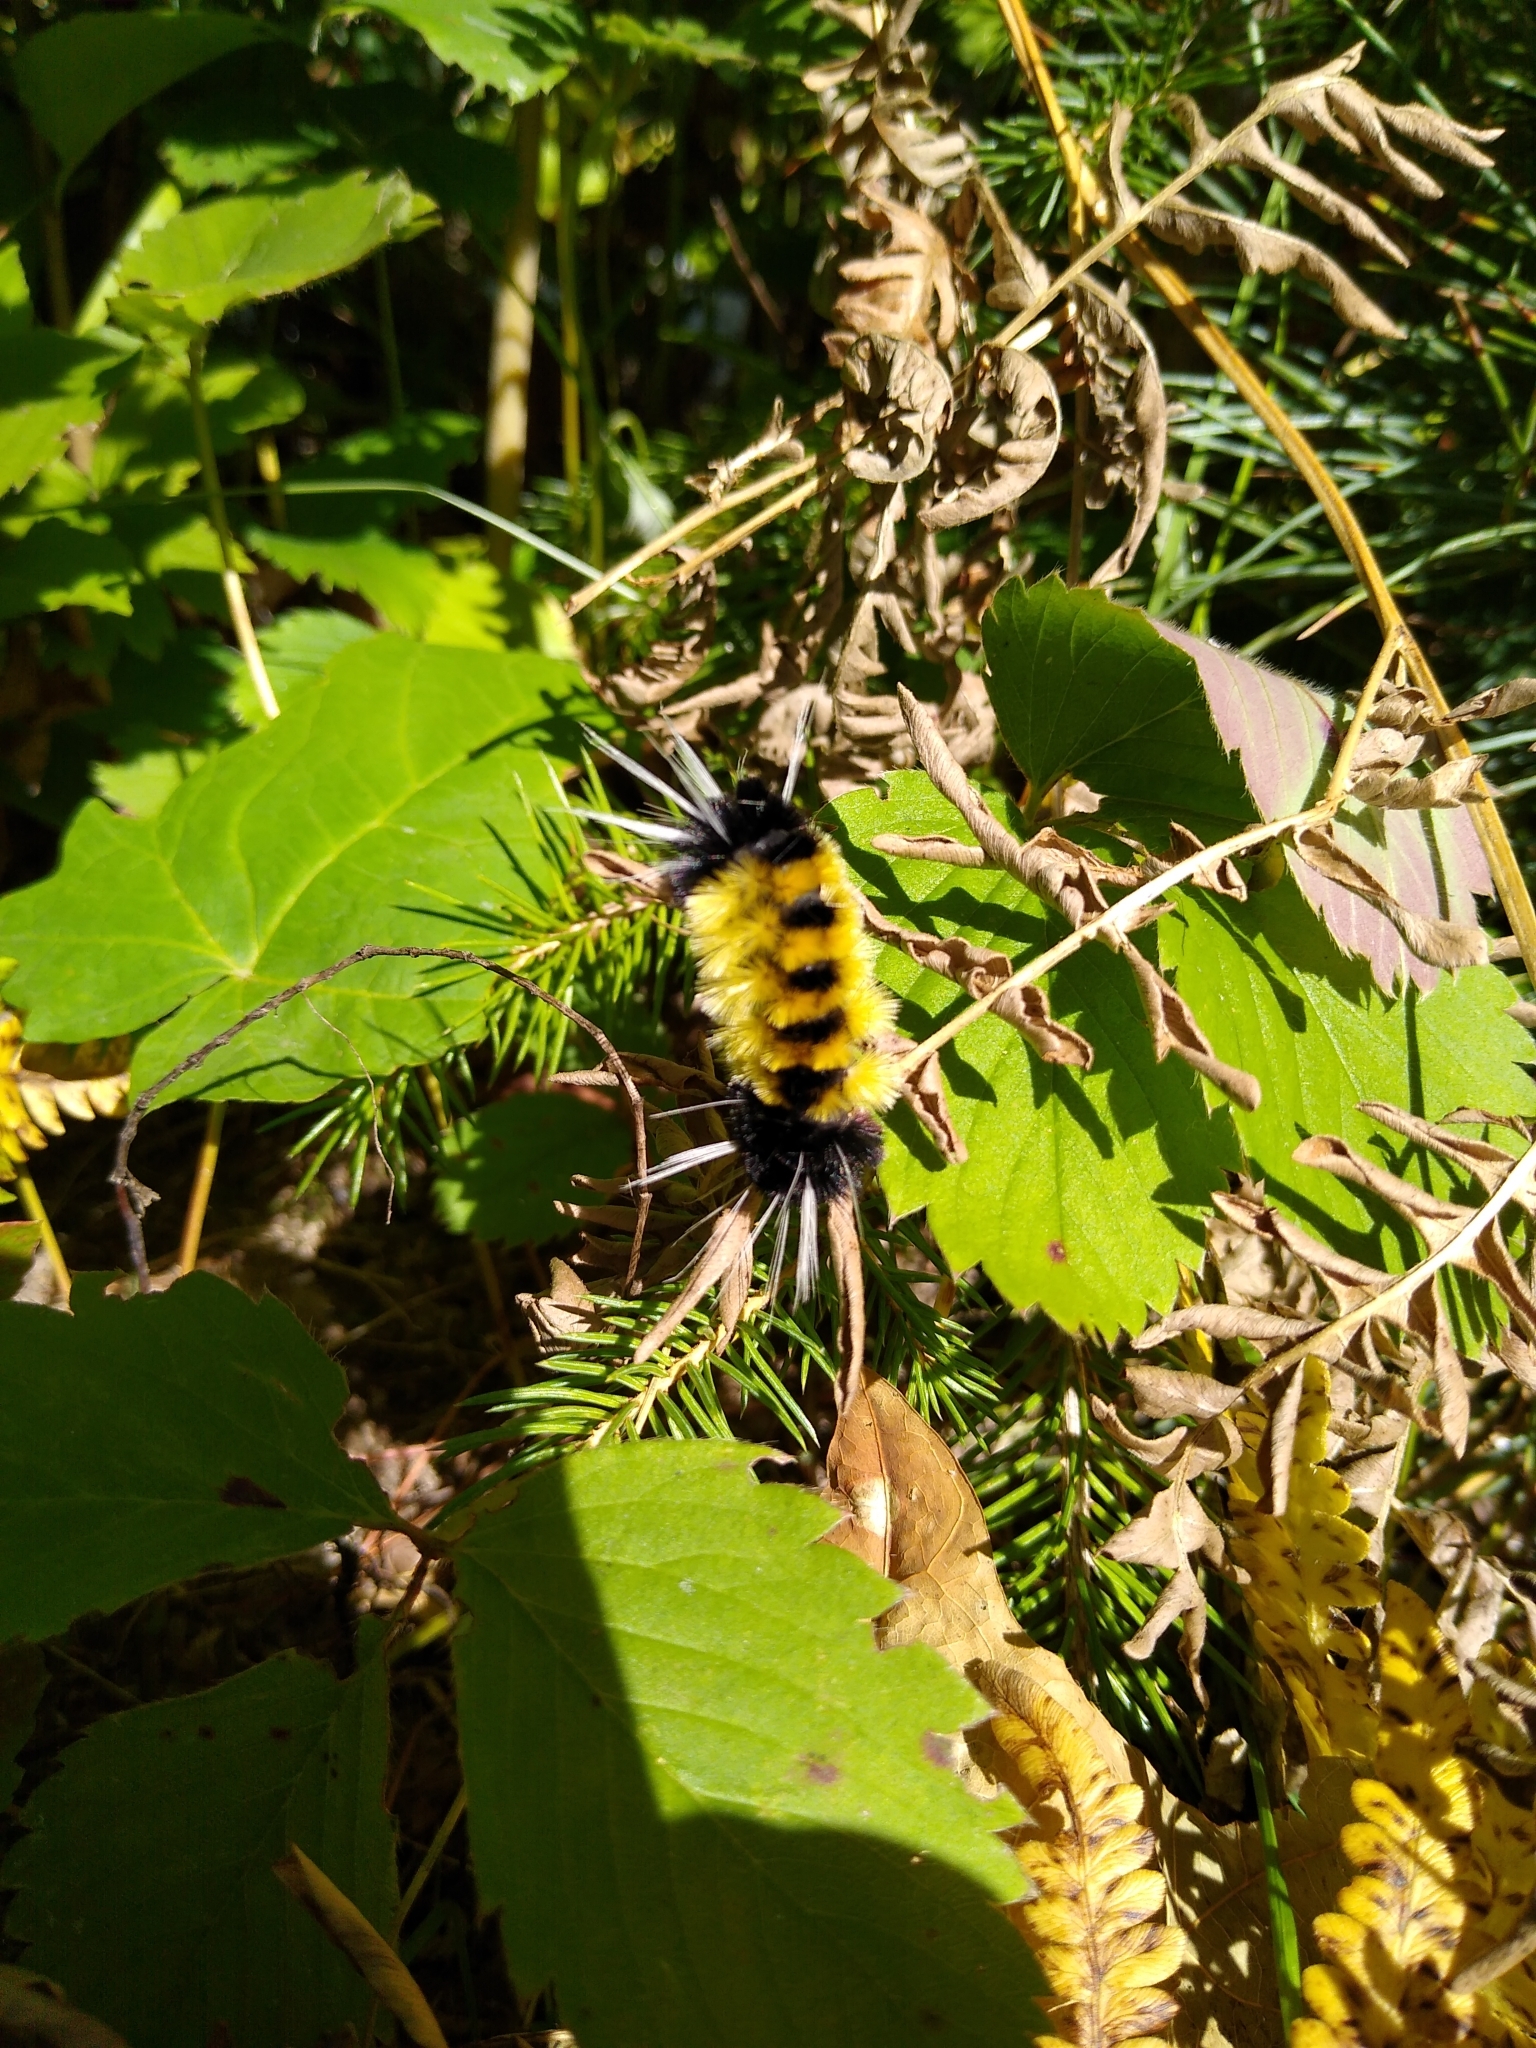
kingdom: Animalia
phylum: Arthropoda
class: Insecta
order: Lepidoptera
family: Erebidae
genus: Lophocampa
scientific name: Lophocampa maculata
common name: Spotted tussock moth
